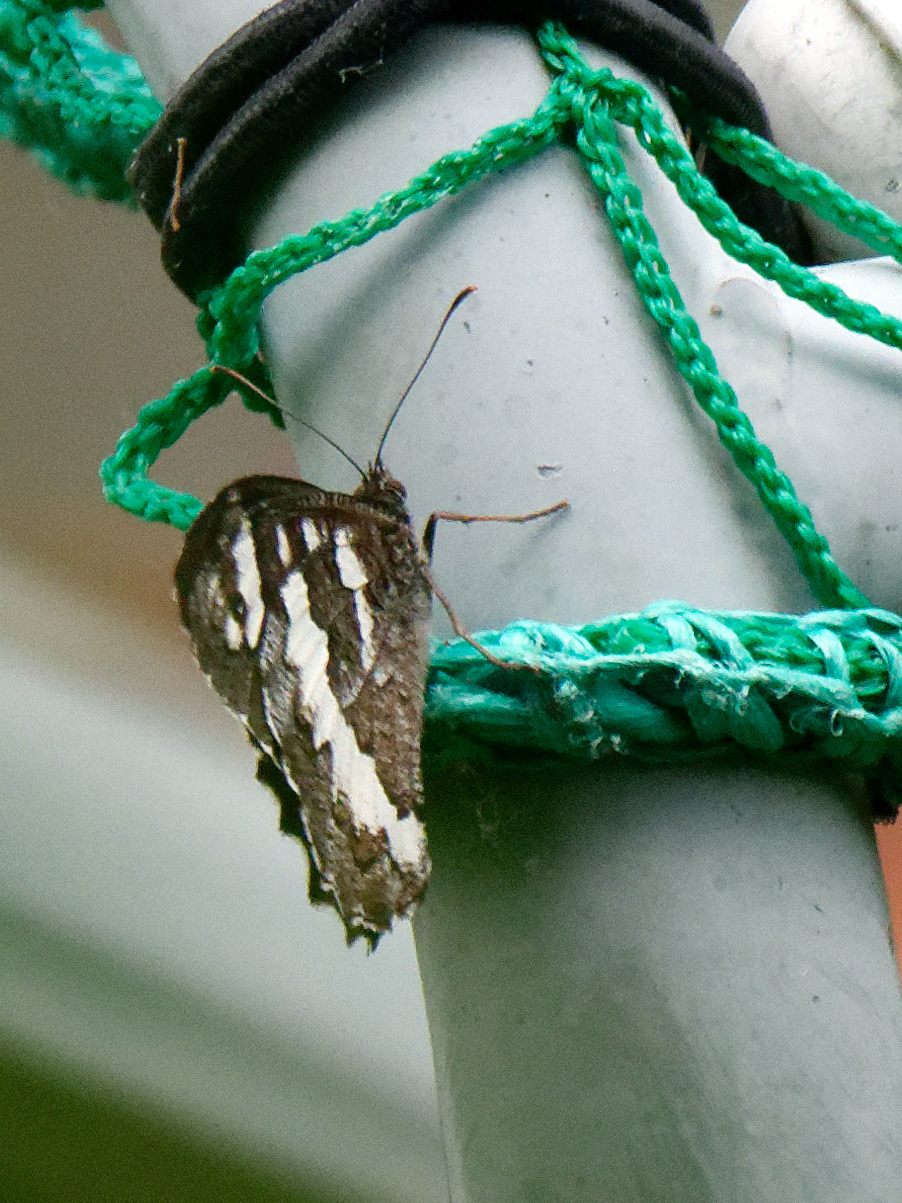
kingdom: Animalia
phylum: Arthropoda
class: Insecta
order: Lepidoptera
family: Lycaenidae
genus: Loweia
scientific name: Loweia tityrus
